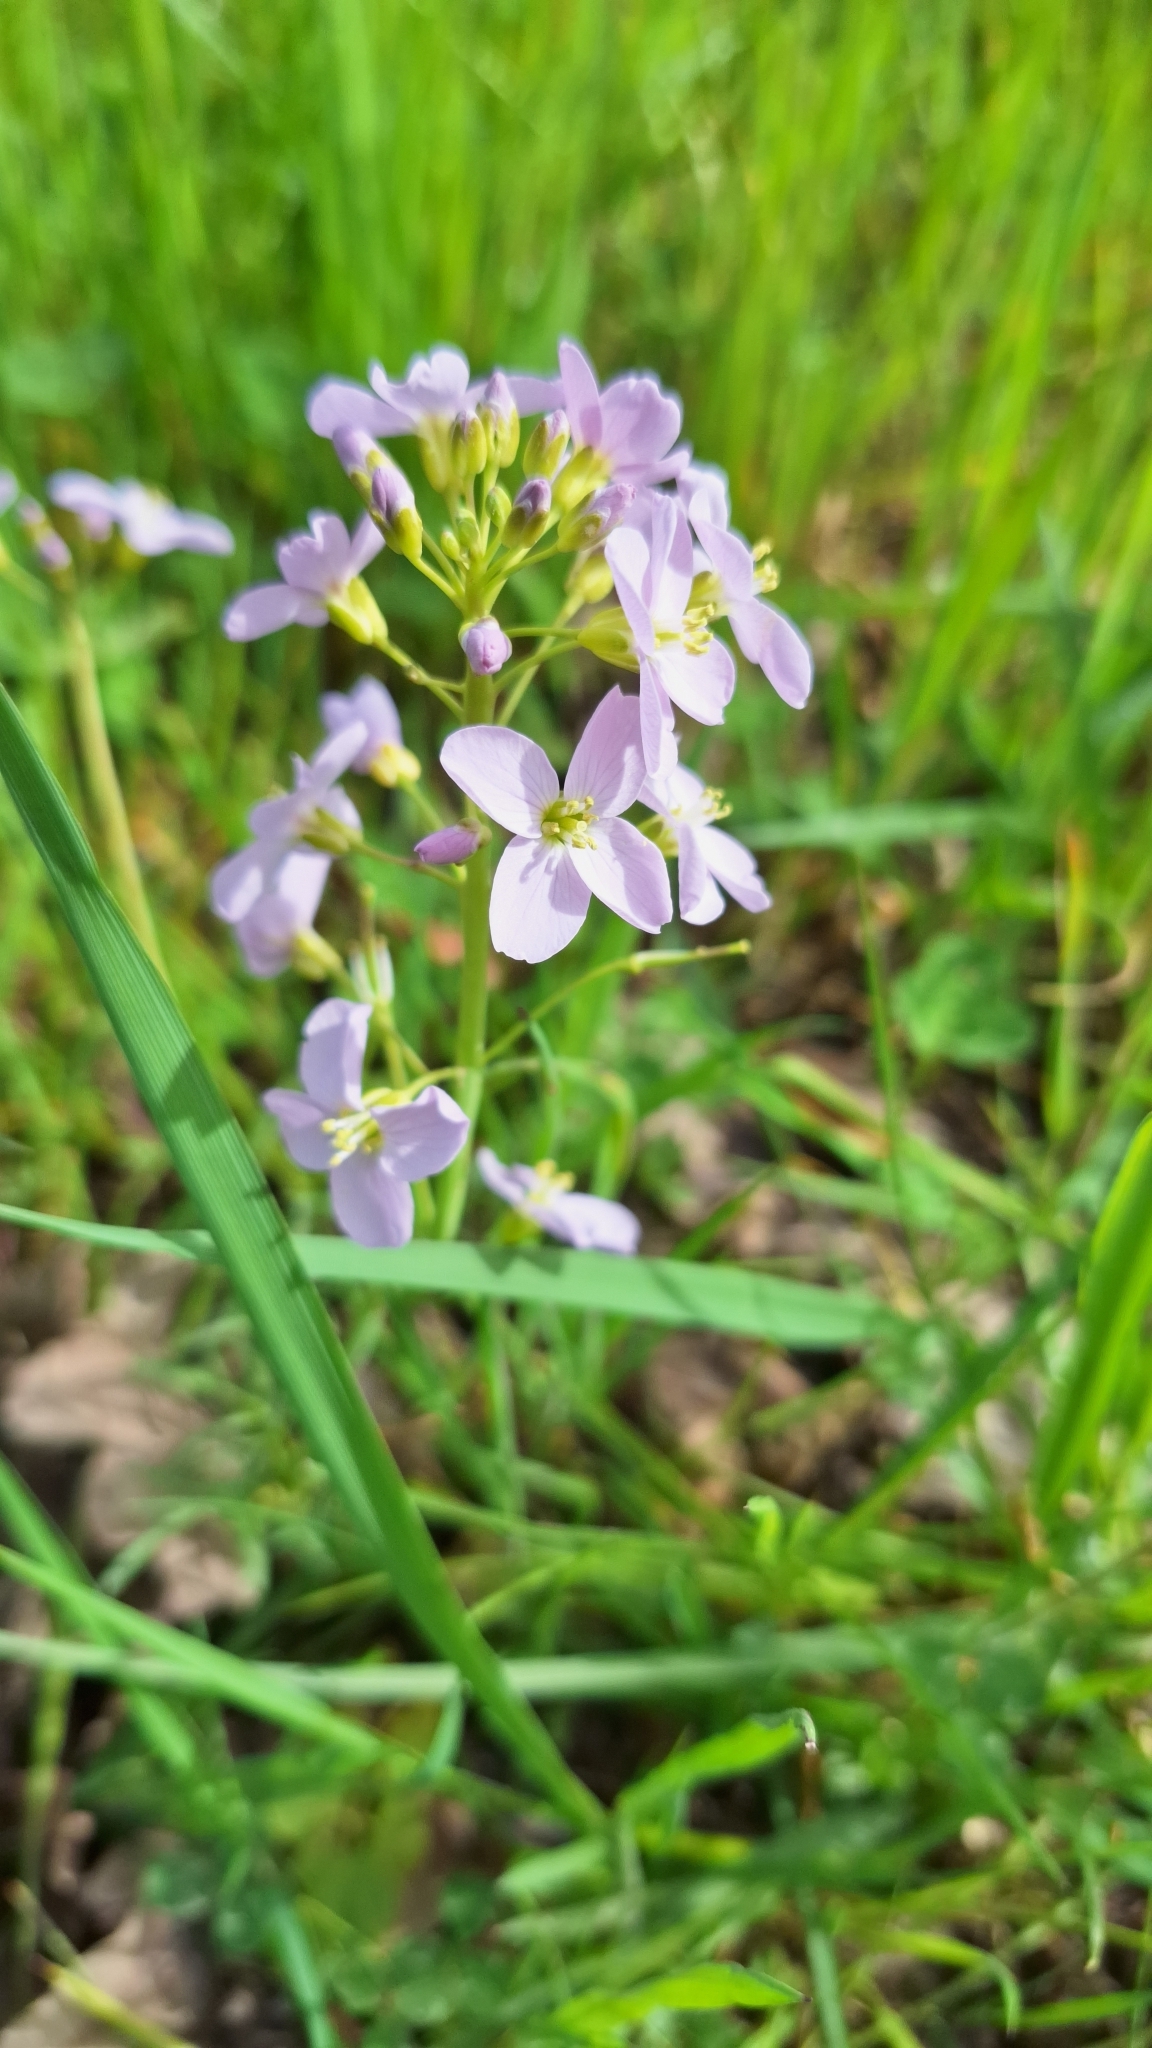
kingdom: Plantae
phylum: Tracheophyta
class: Magnoliopsida
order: Brassicales
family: Brassicaceae
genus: Cardamine
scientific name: Cardamine pratensis
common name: Cuckoo flower
